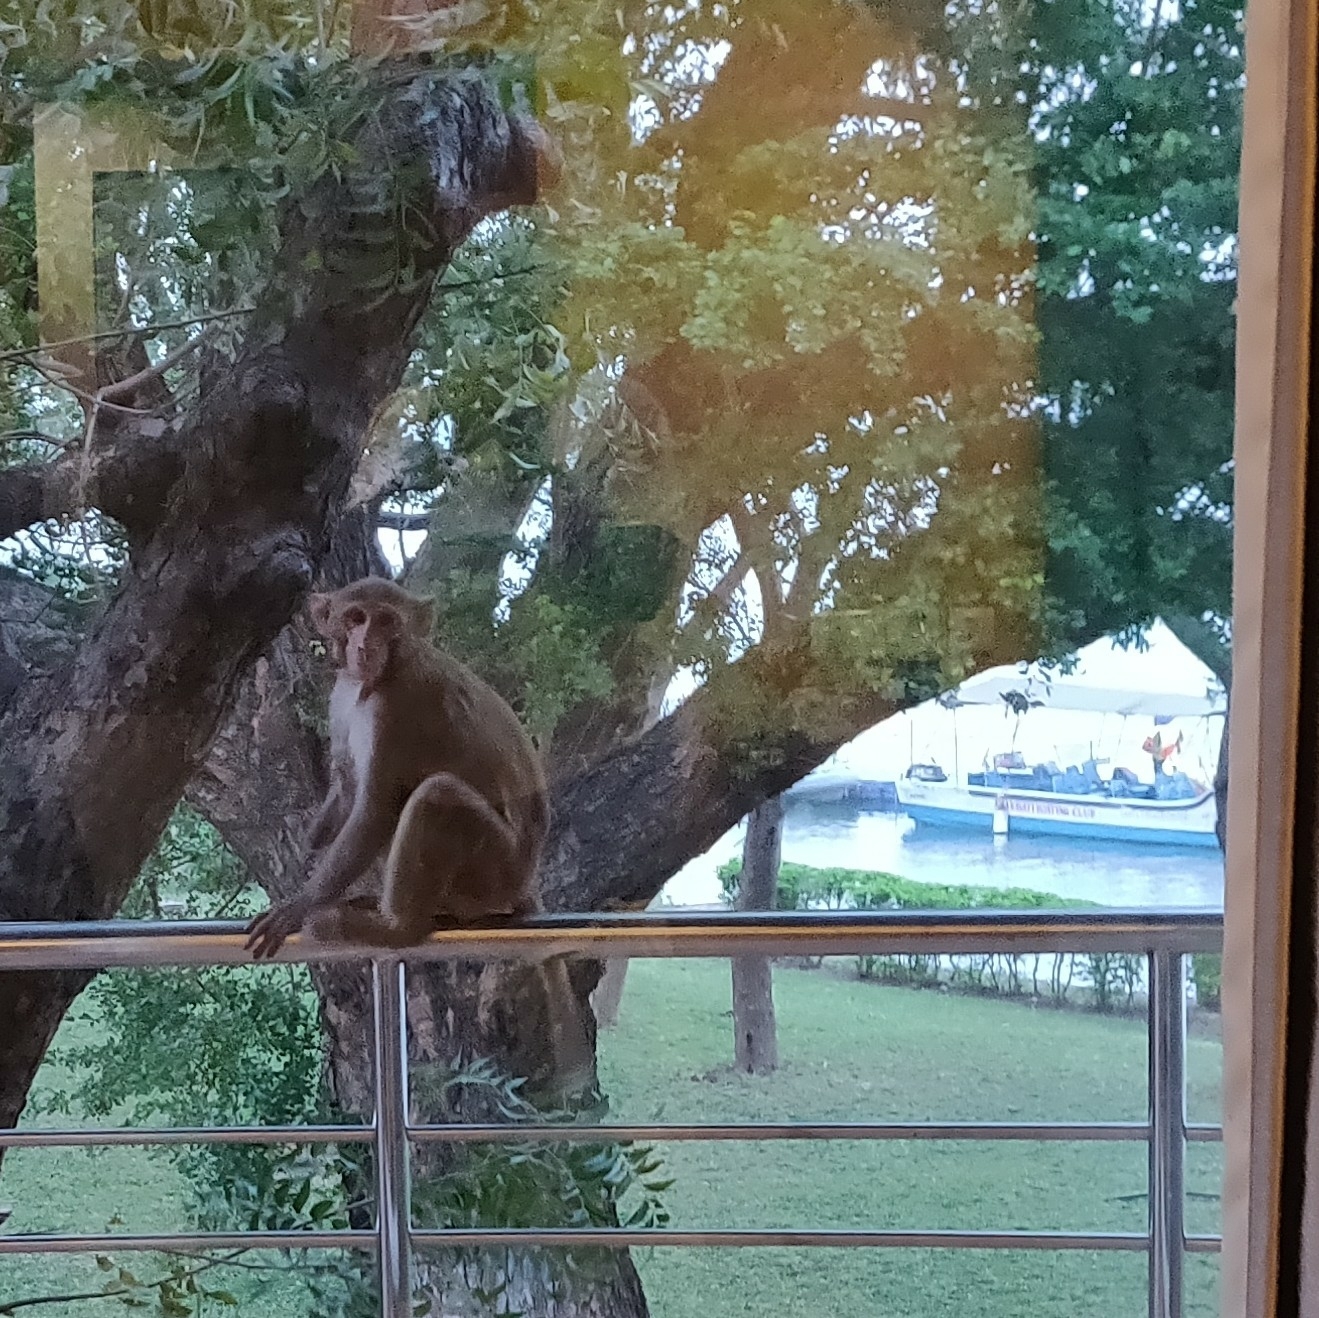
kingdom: Animalia
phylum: Chordata
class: Mammalia
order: Primates
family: Cercopithecidae
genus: Macaca
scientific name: Macaca mulatta
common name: Rhesus monkey
